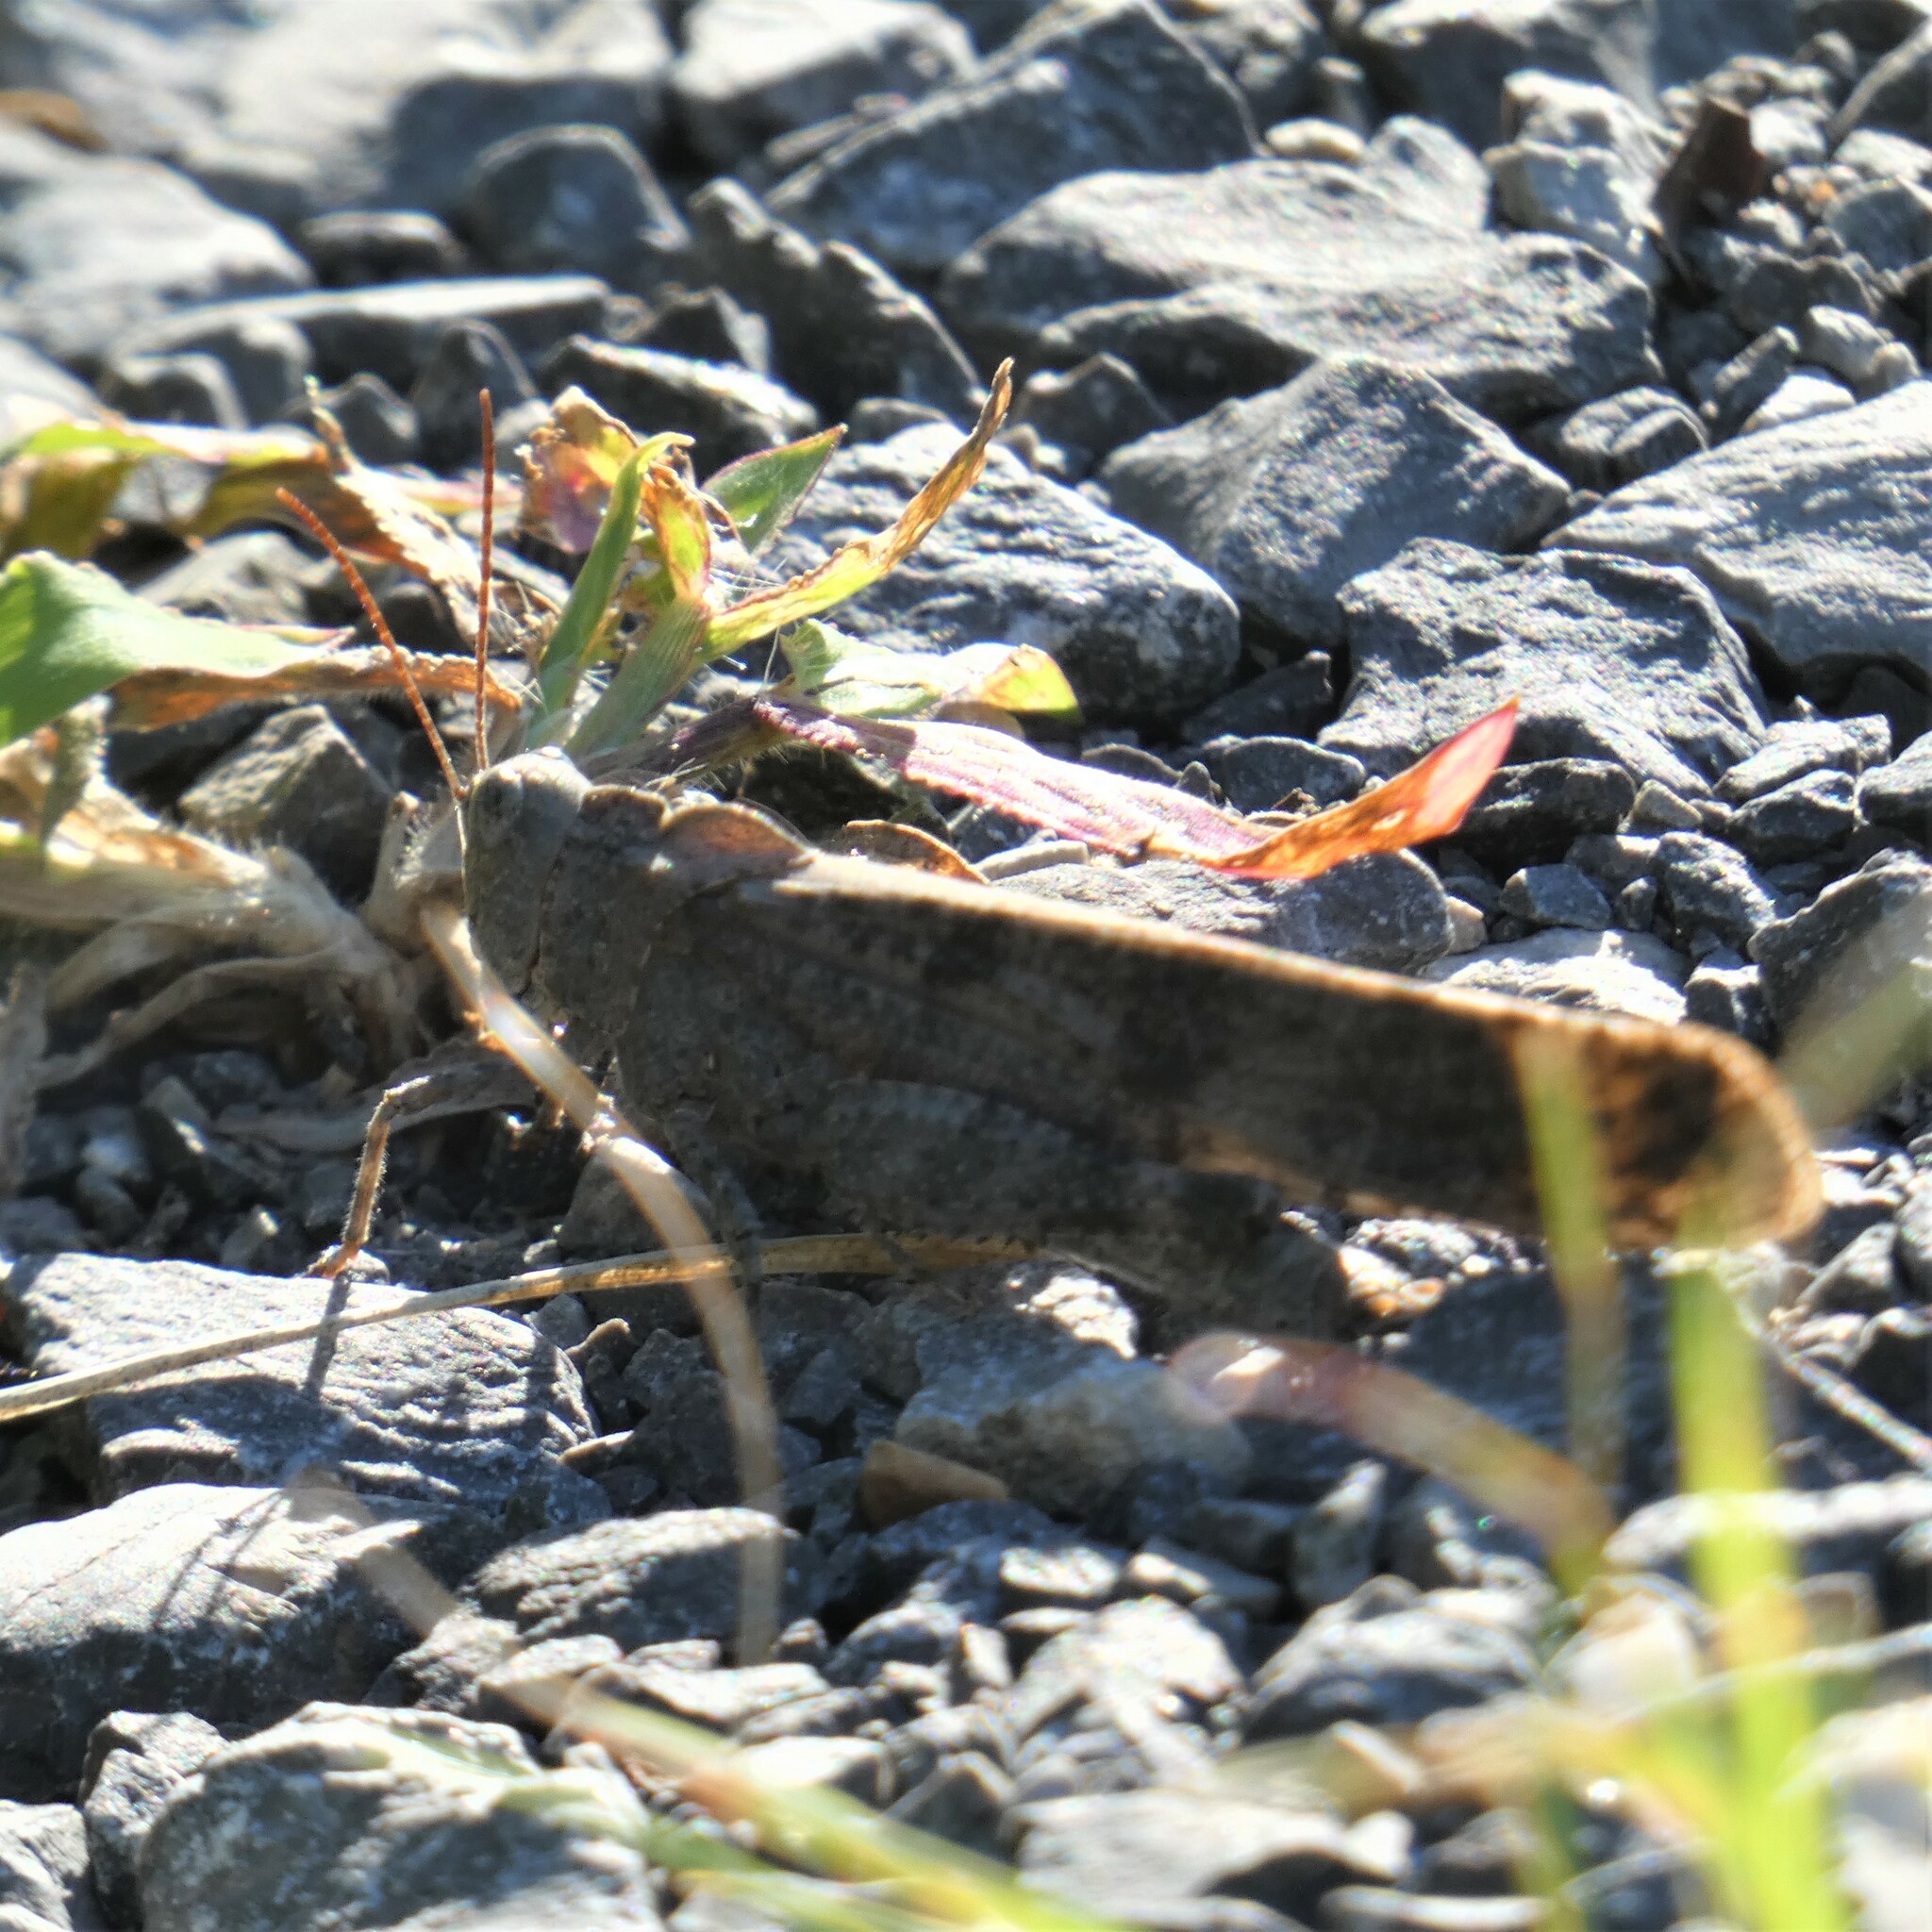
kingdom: Animalia
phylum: Arthropoda
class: Insecta
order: Orthoptera
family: Acrididae
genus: Dissosteira
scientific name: Dissosteira carolina
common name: Carolina grasshopper
